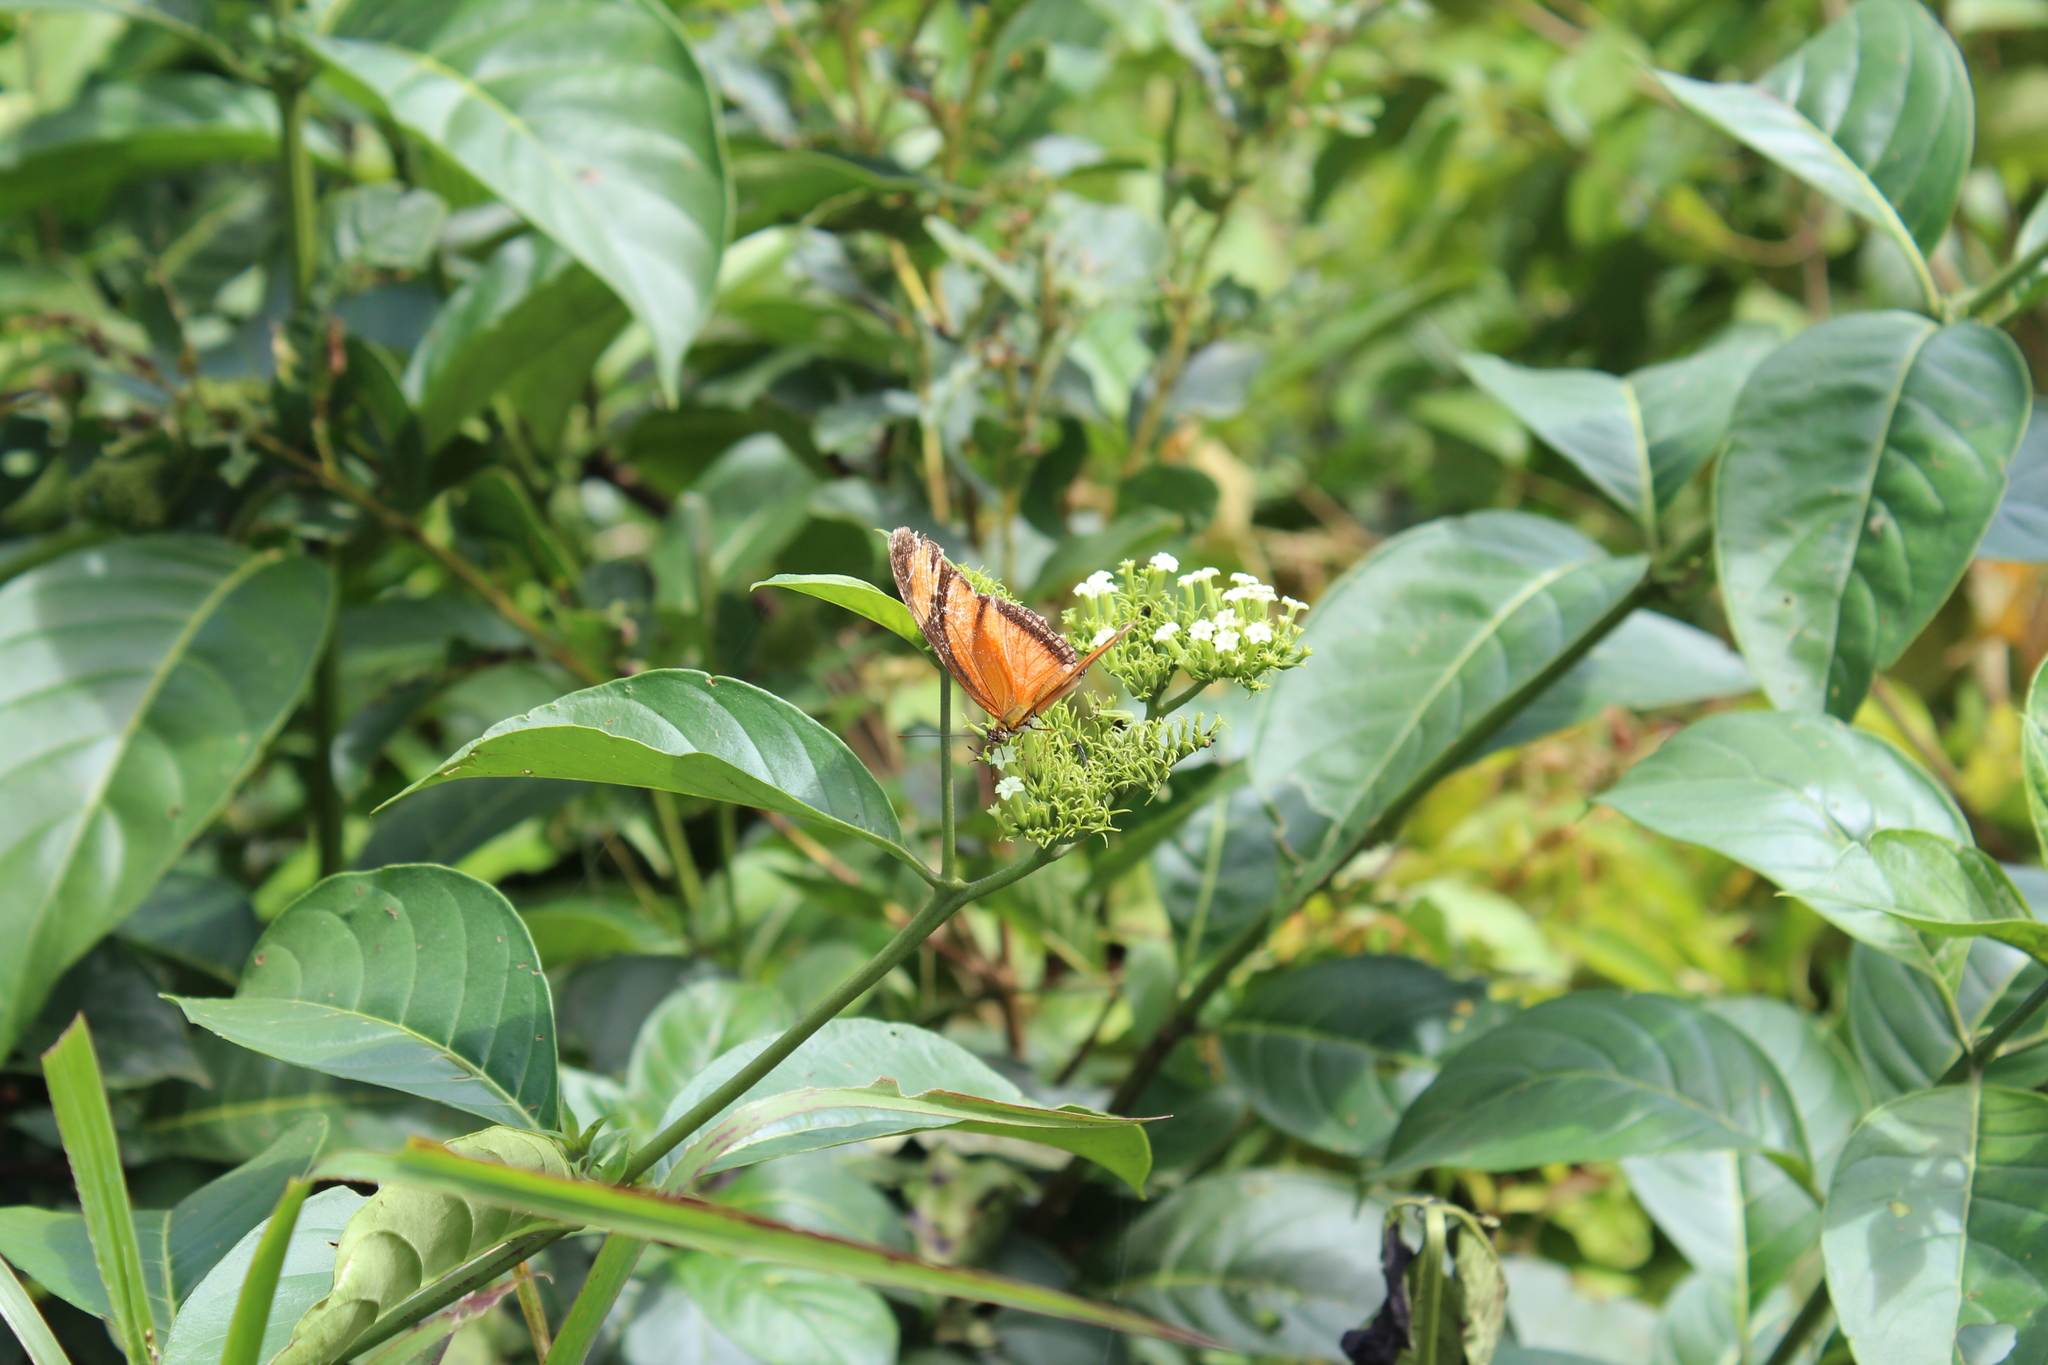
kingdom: Animalia
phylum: Arthropoda
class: Insecta
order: Lepidoptera
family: Nymphalidae
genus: Dryas
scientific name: Dryas iulia
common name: Flambeau
